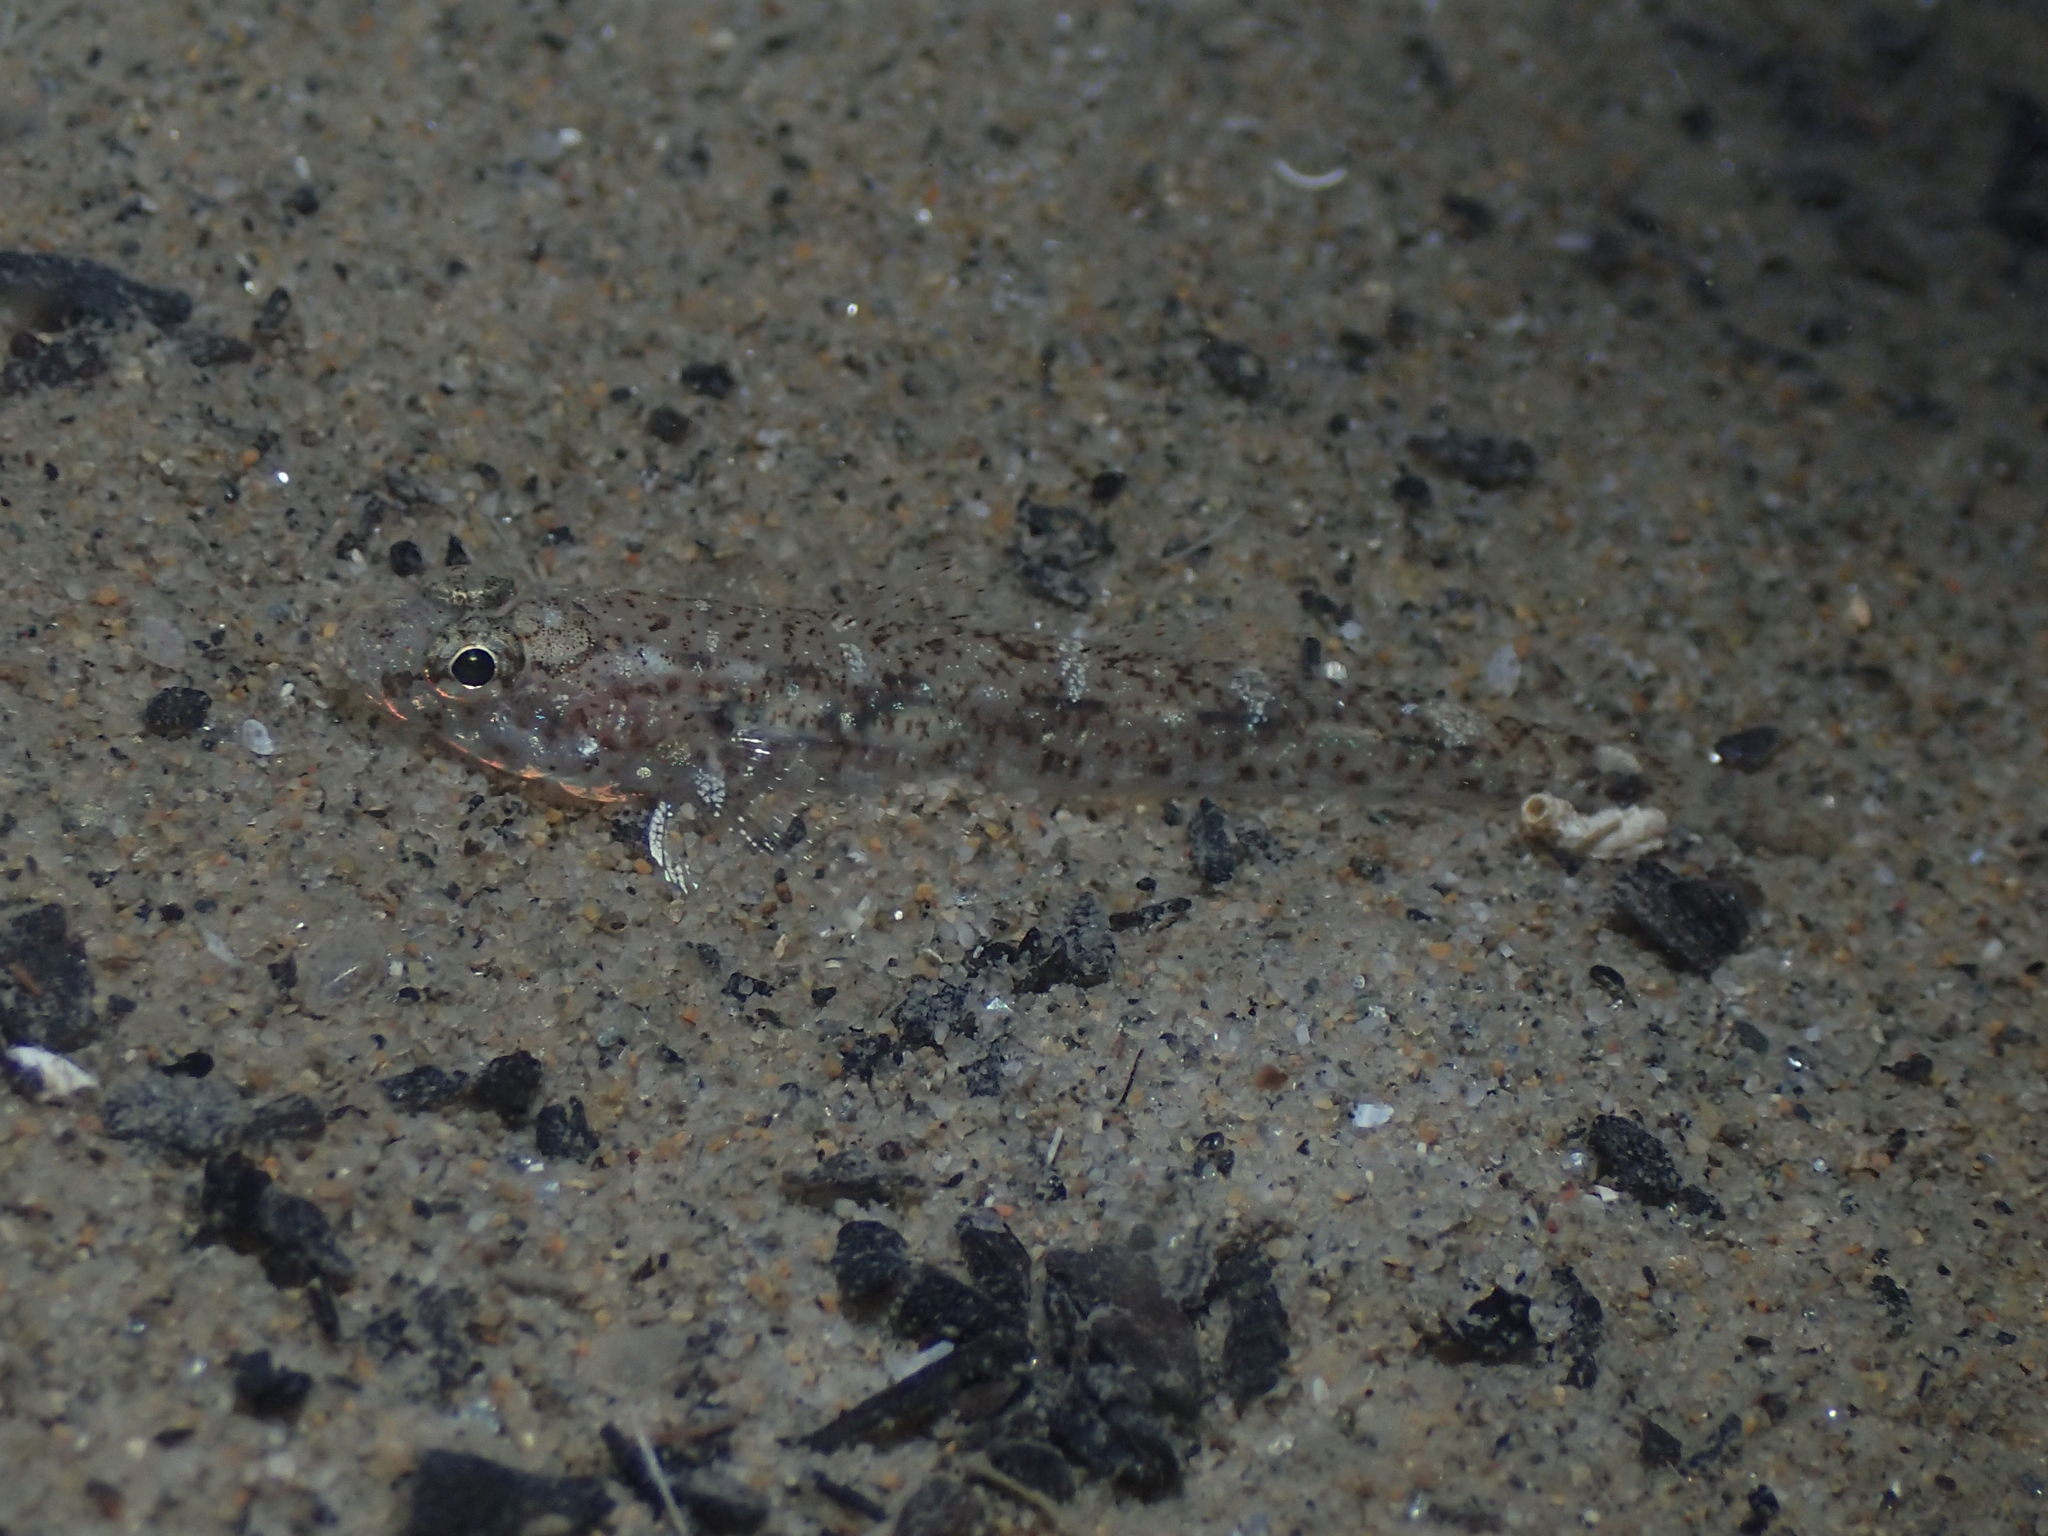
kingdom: Animalia
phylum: Chordata
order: Perciformes
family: Gobiidae
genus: Pomatoschistus
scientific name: Pomatoschistus marmoratus
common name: Marbled goby
